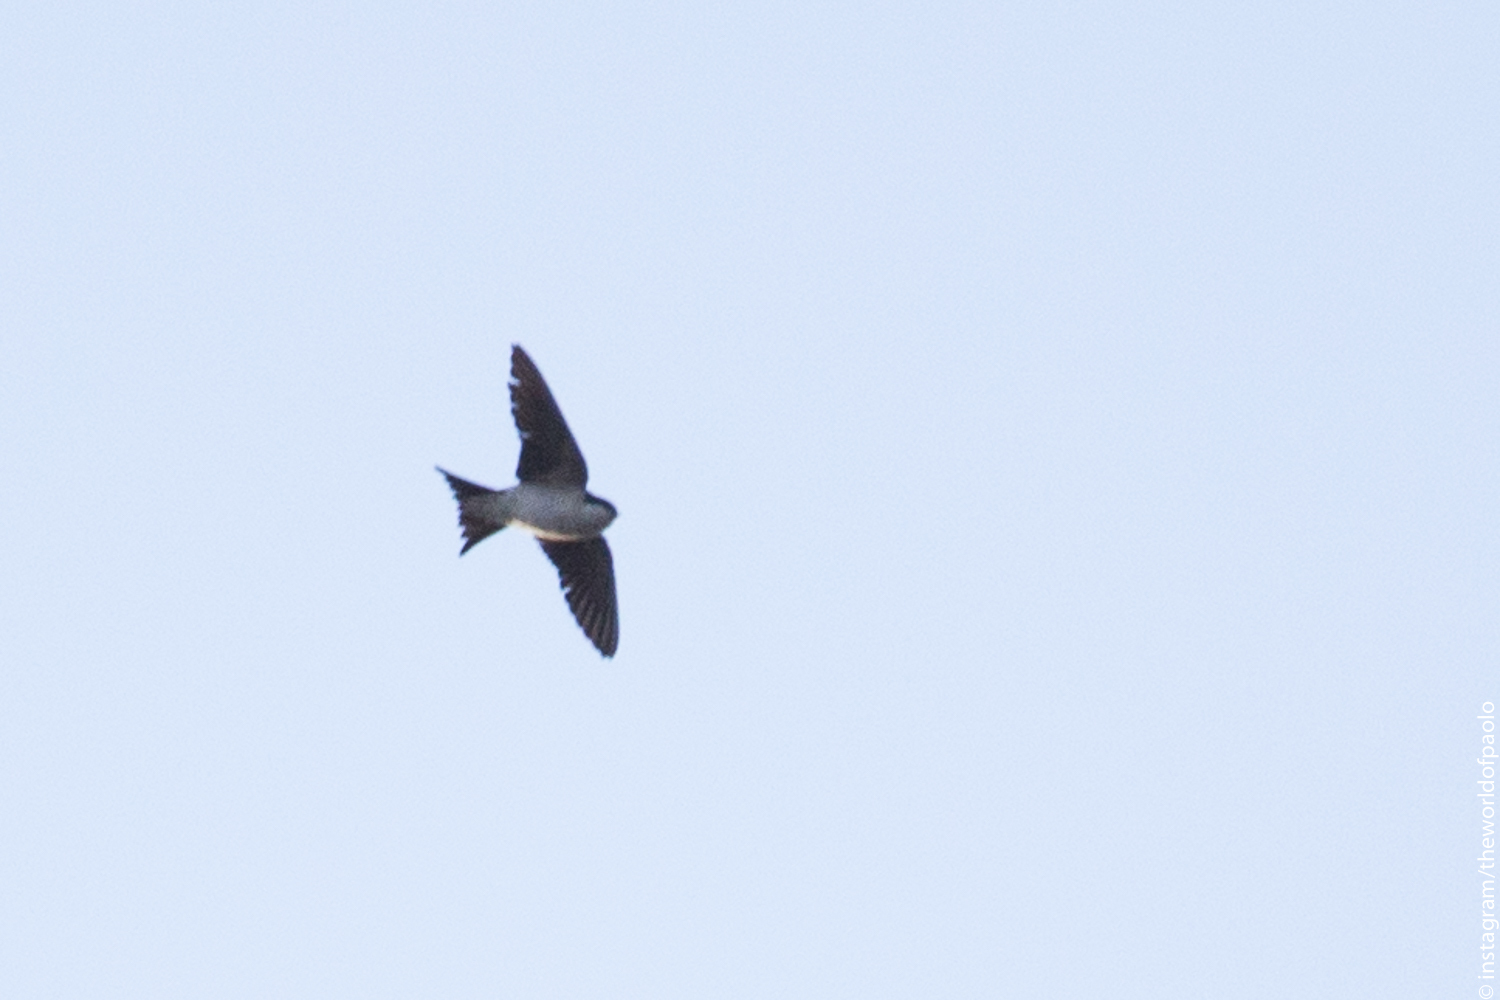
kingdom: Animalia
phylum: Chordata
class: Aves
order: Passeriformes
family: Hirundinidae
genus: Delichon
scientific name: Delichon urbicum
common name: Common house martin
